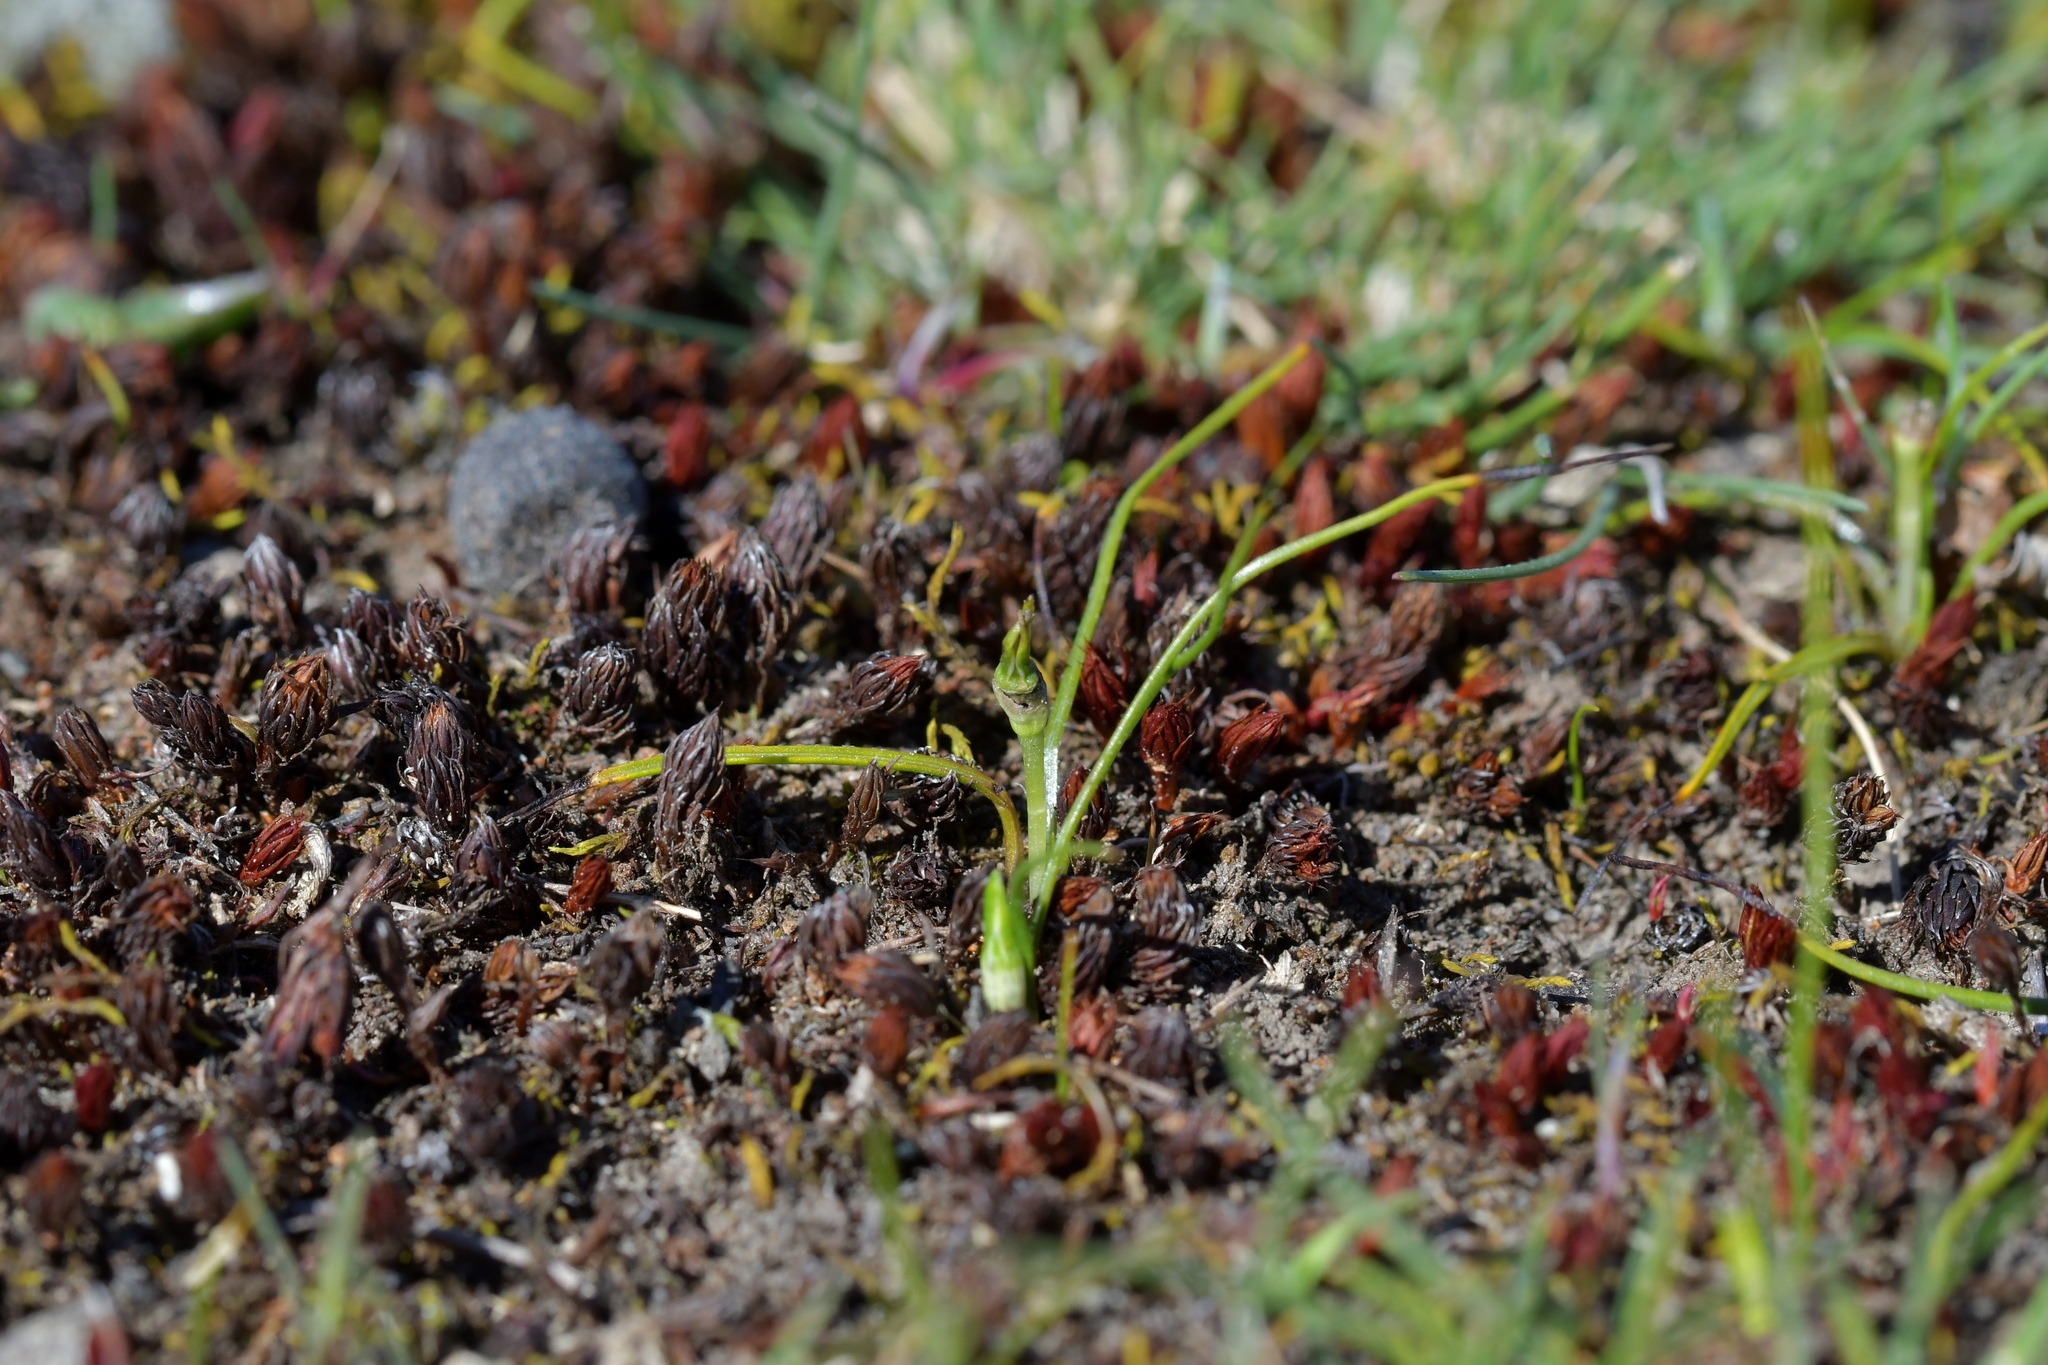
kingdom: Plantae
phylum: Tracheophyta
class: Liliopsida
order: Asparagales
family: Hypoxidaceae
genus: Pauridia
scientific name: Pauridia glabella
